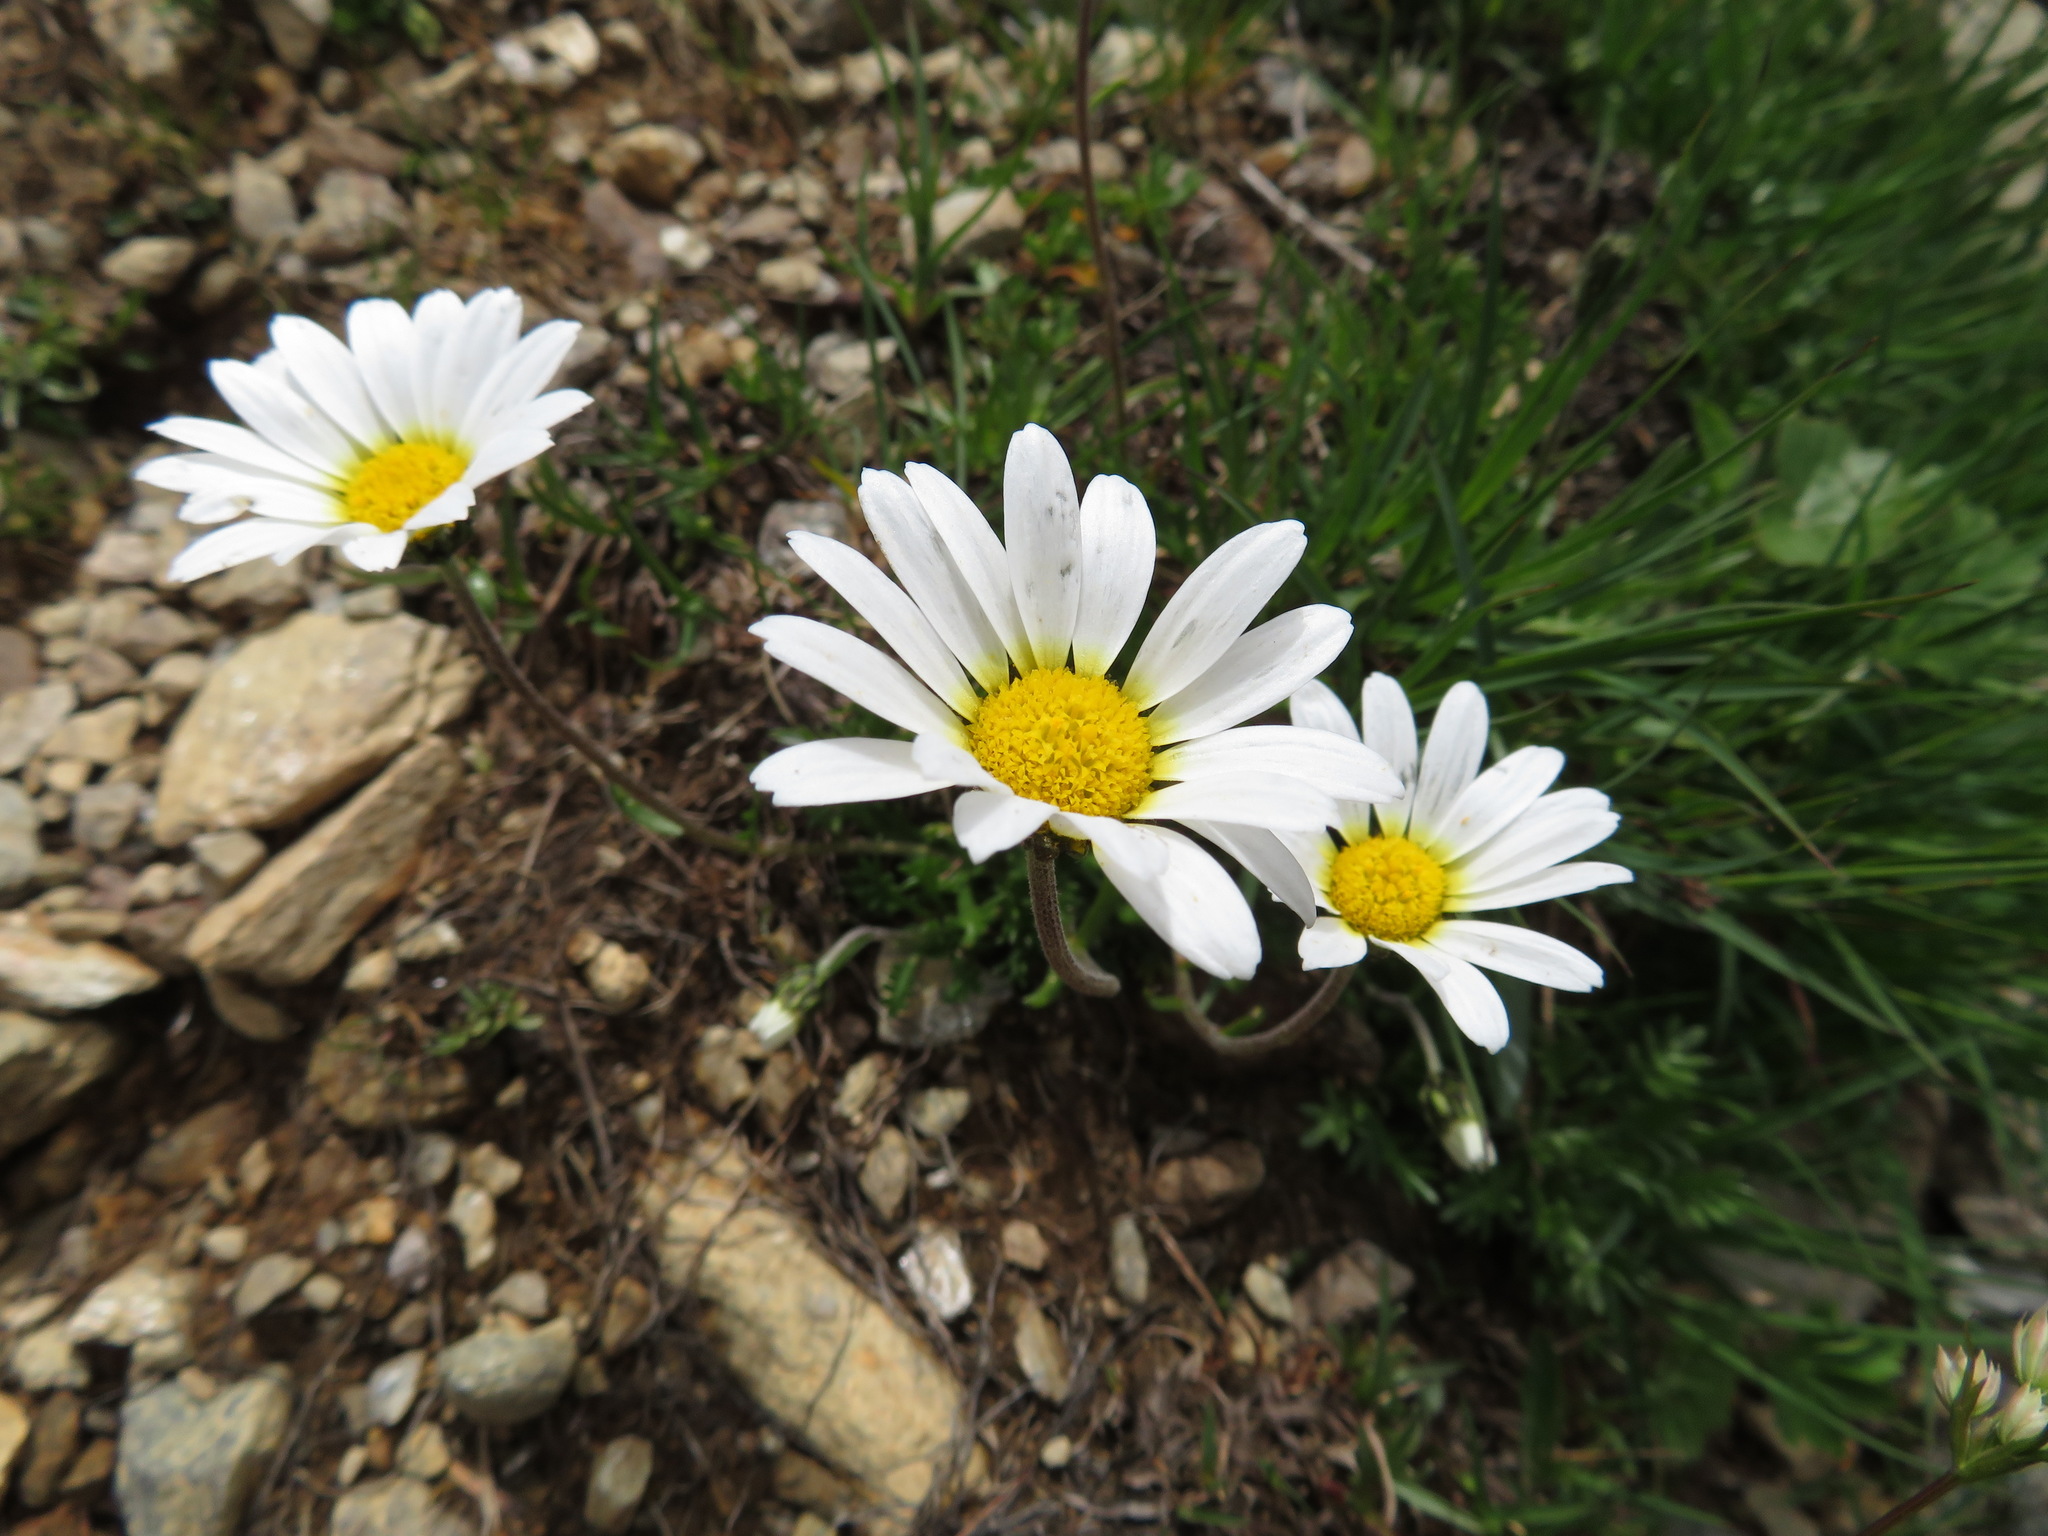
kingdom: Plantae
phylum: Tracheophyta
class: Magnoliopsida
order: Asterales
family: Asteraceae
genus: Leucanthemopsis
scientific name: Leucanthemopsis alpina
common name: Alpine moon daisy
